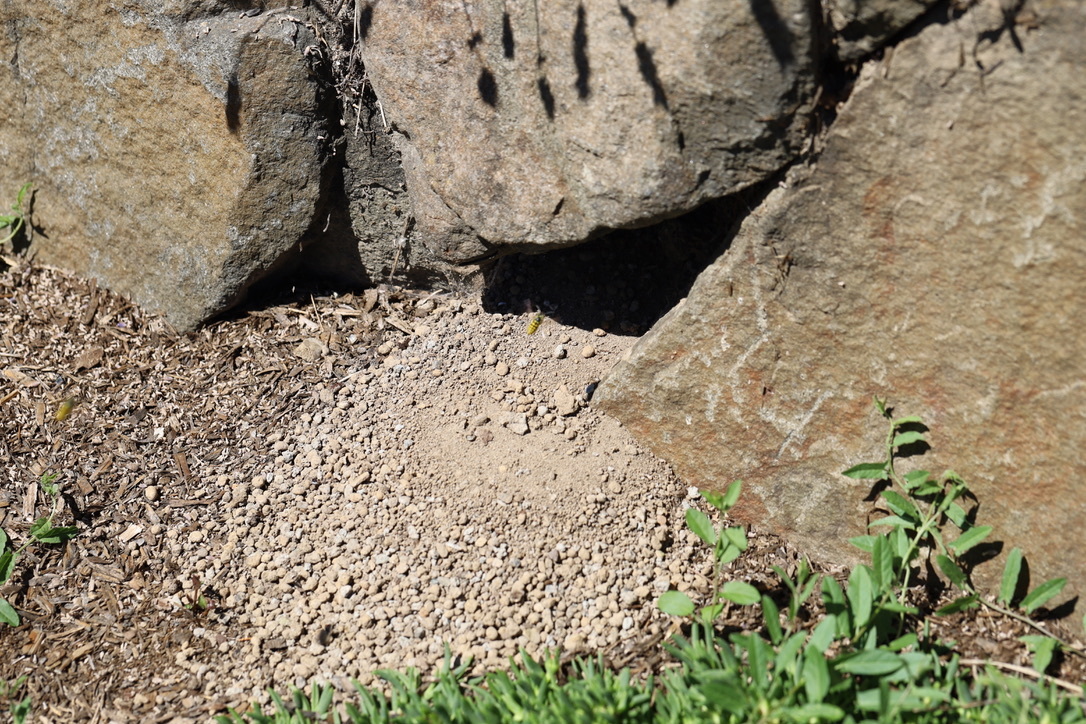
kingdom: Animalia
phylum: Arthropoda
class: Insecta
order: Hymenoptera
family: Vespidae
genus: Vespula
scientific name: Vespula
